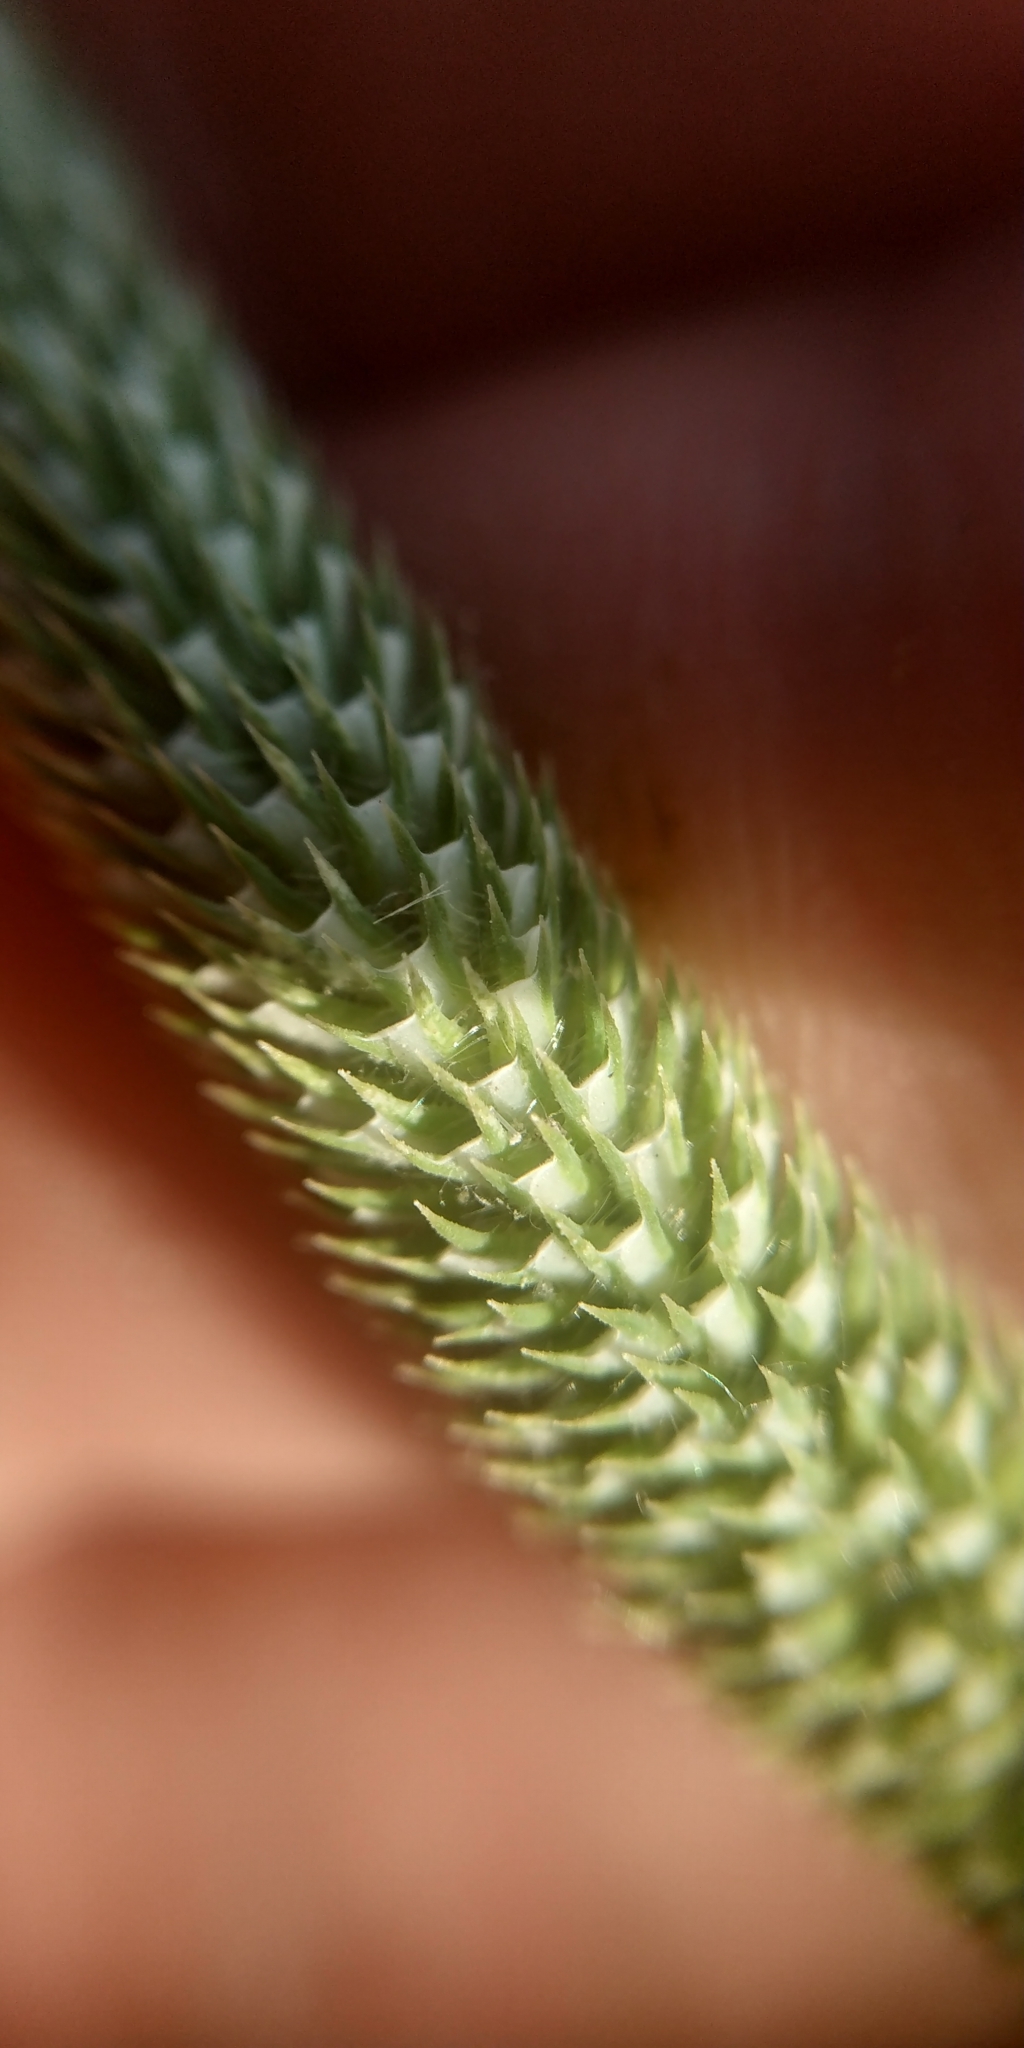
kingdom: Plantae
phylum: Tracheophyta
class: Liliopsida
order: Poales
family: Poaceae
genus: Phleum
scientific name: Phleum pratense
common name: Timothy grass
